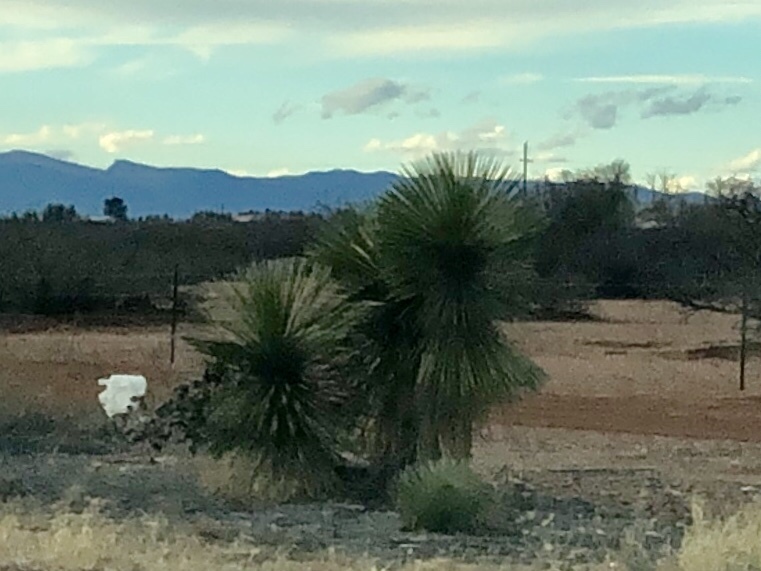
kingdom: Plantae
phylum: Tracheophyta
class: Liliopsida
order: Asparagales
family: Asparagaceae
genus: Yucca
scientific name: Yucca elata
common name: Palmella
